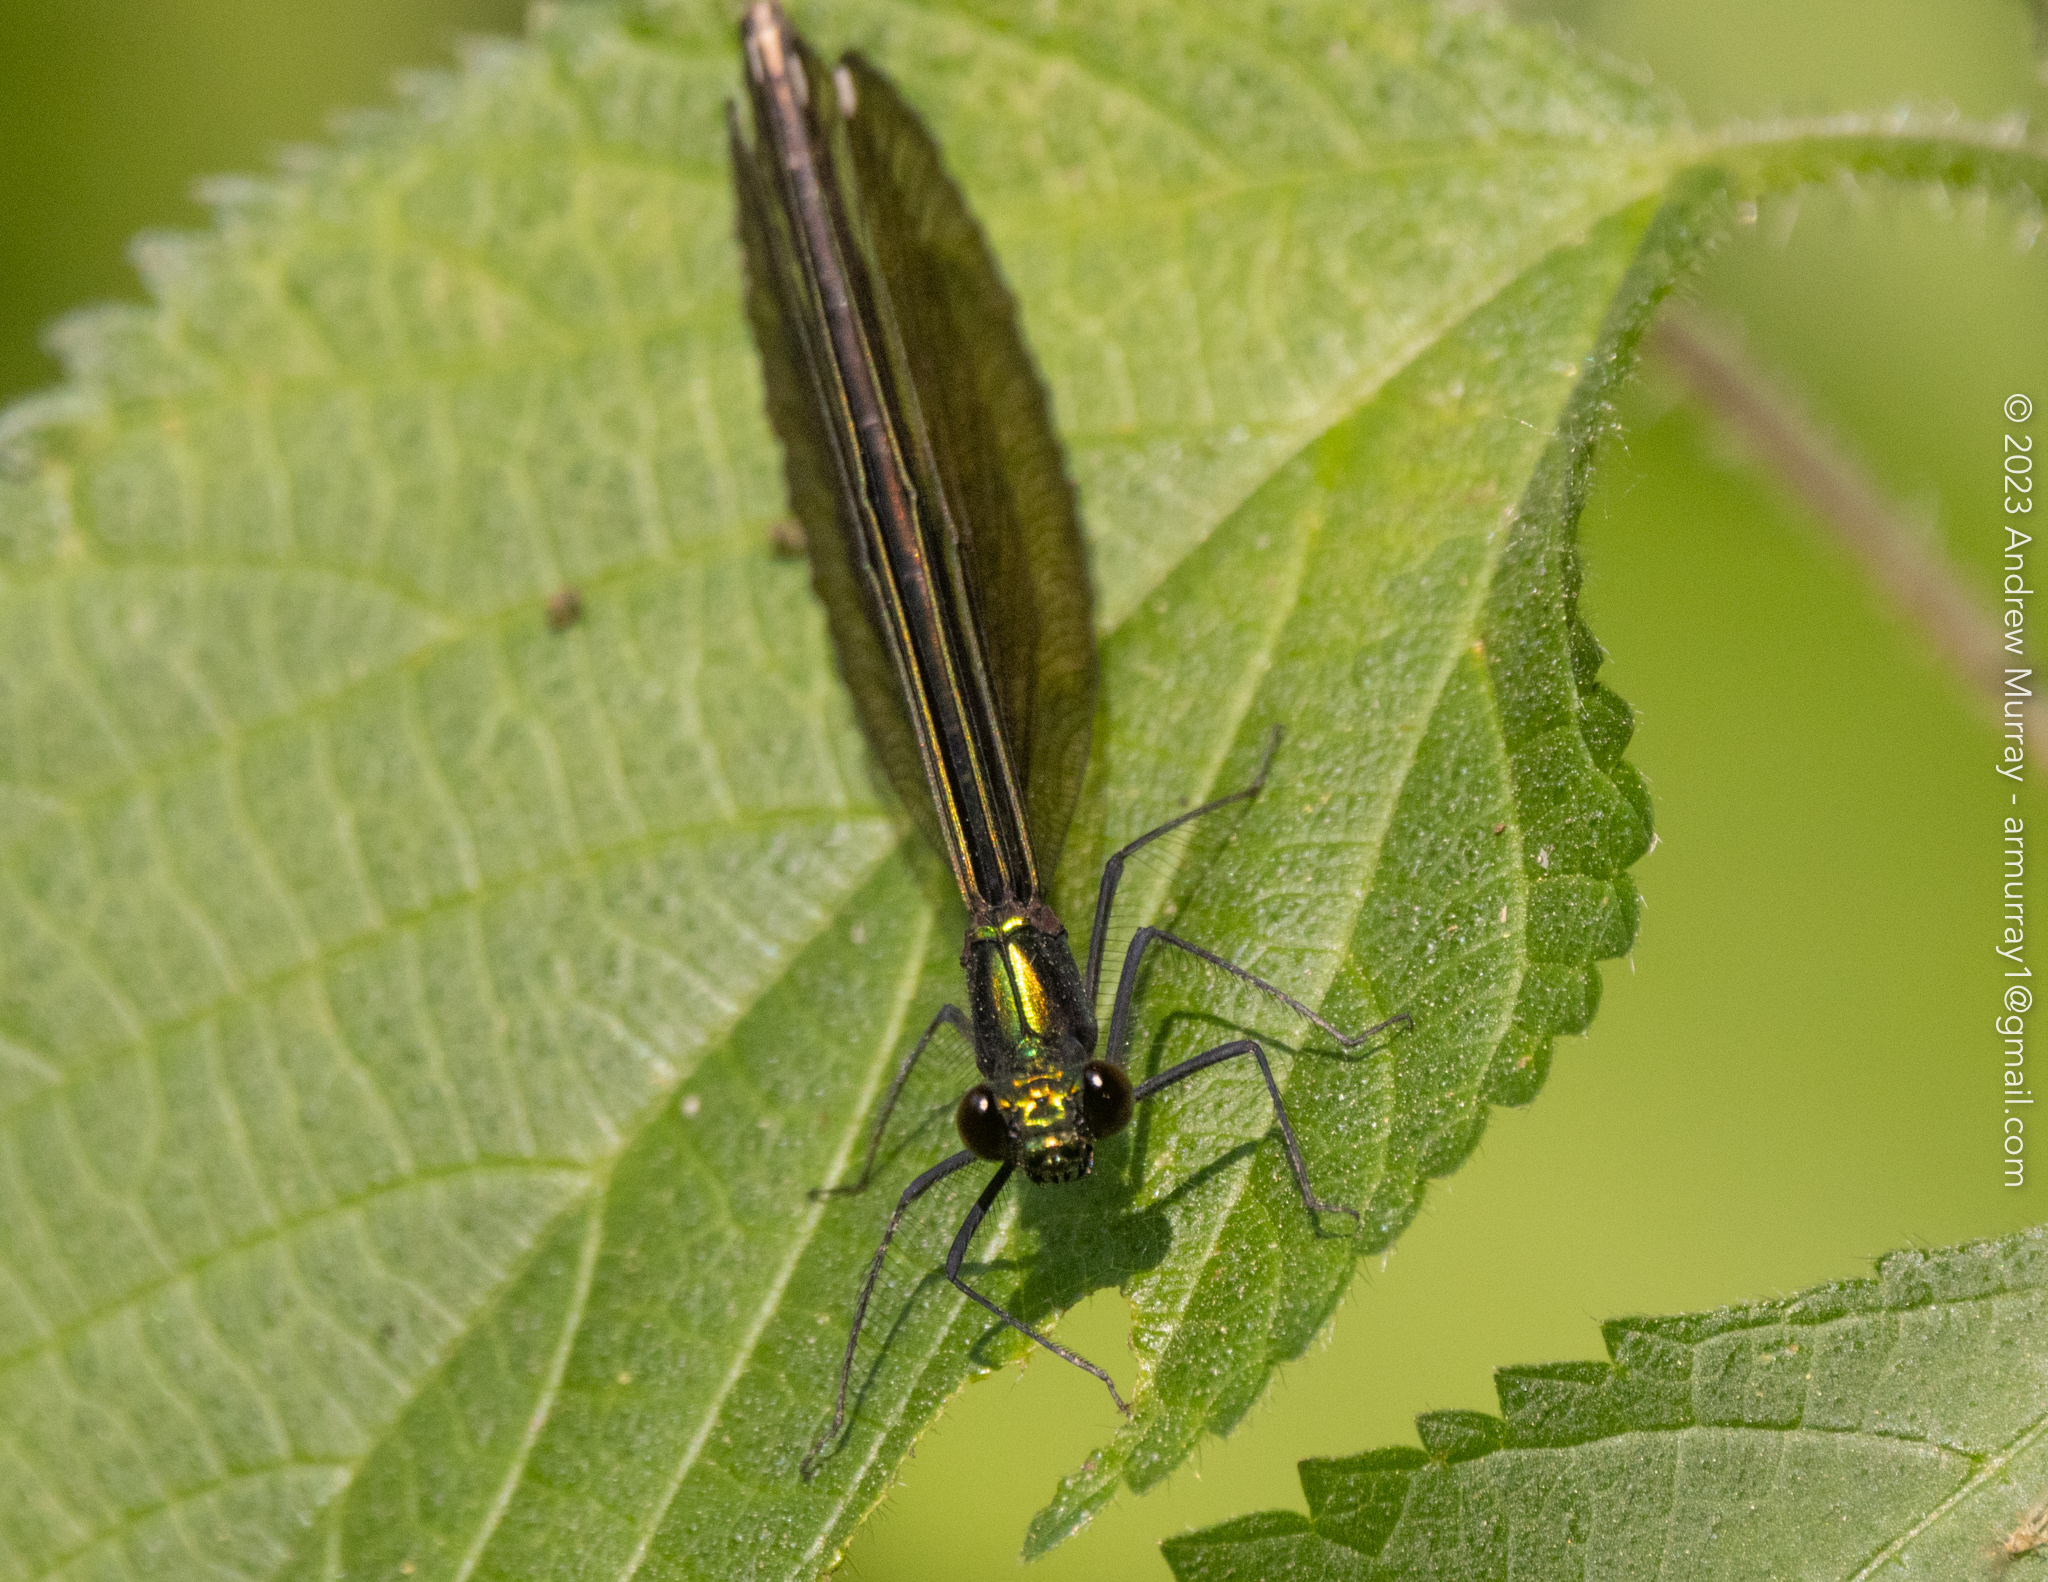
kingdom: Animalia
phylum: Arthropoda
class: Insecta
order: Odonata
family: Calopterygidae
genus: Calopteryx
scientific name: Calopteryx maculata
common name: Ebony jewelwing
